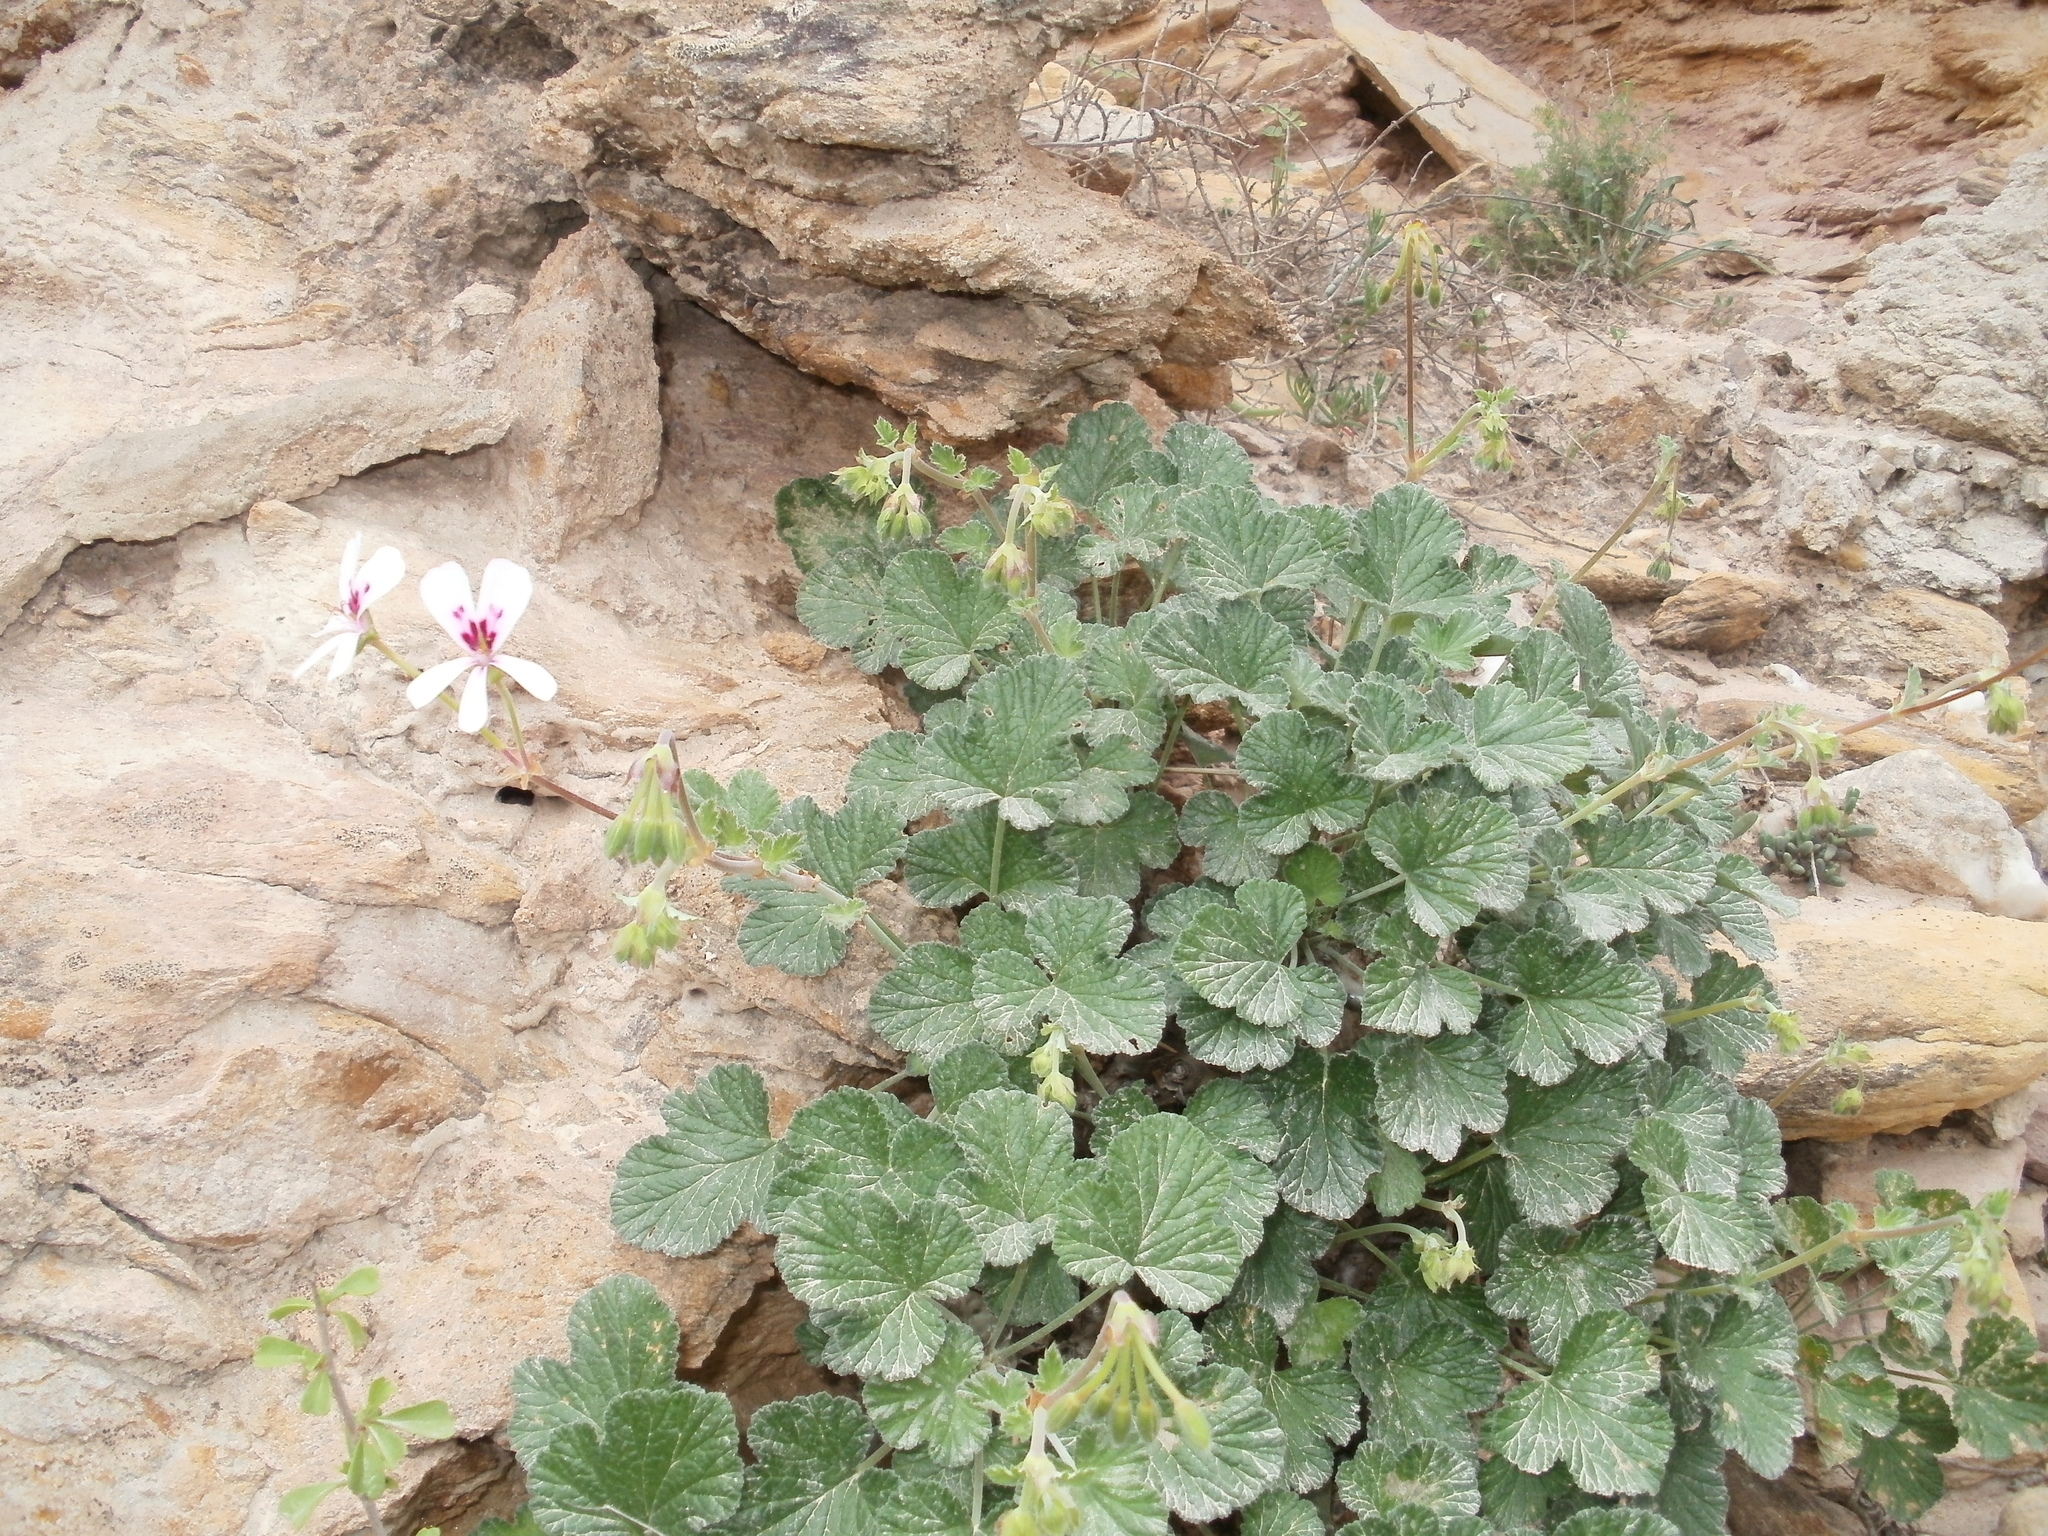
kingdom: Plantae
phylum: Tracheophyta
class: Magnoliopsida
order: Geraniales
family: Geraniaceae
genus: Pelargonium
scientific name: Pelargonium echinatum
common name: Cactus geranium
